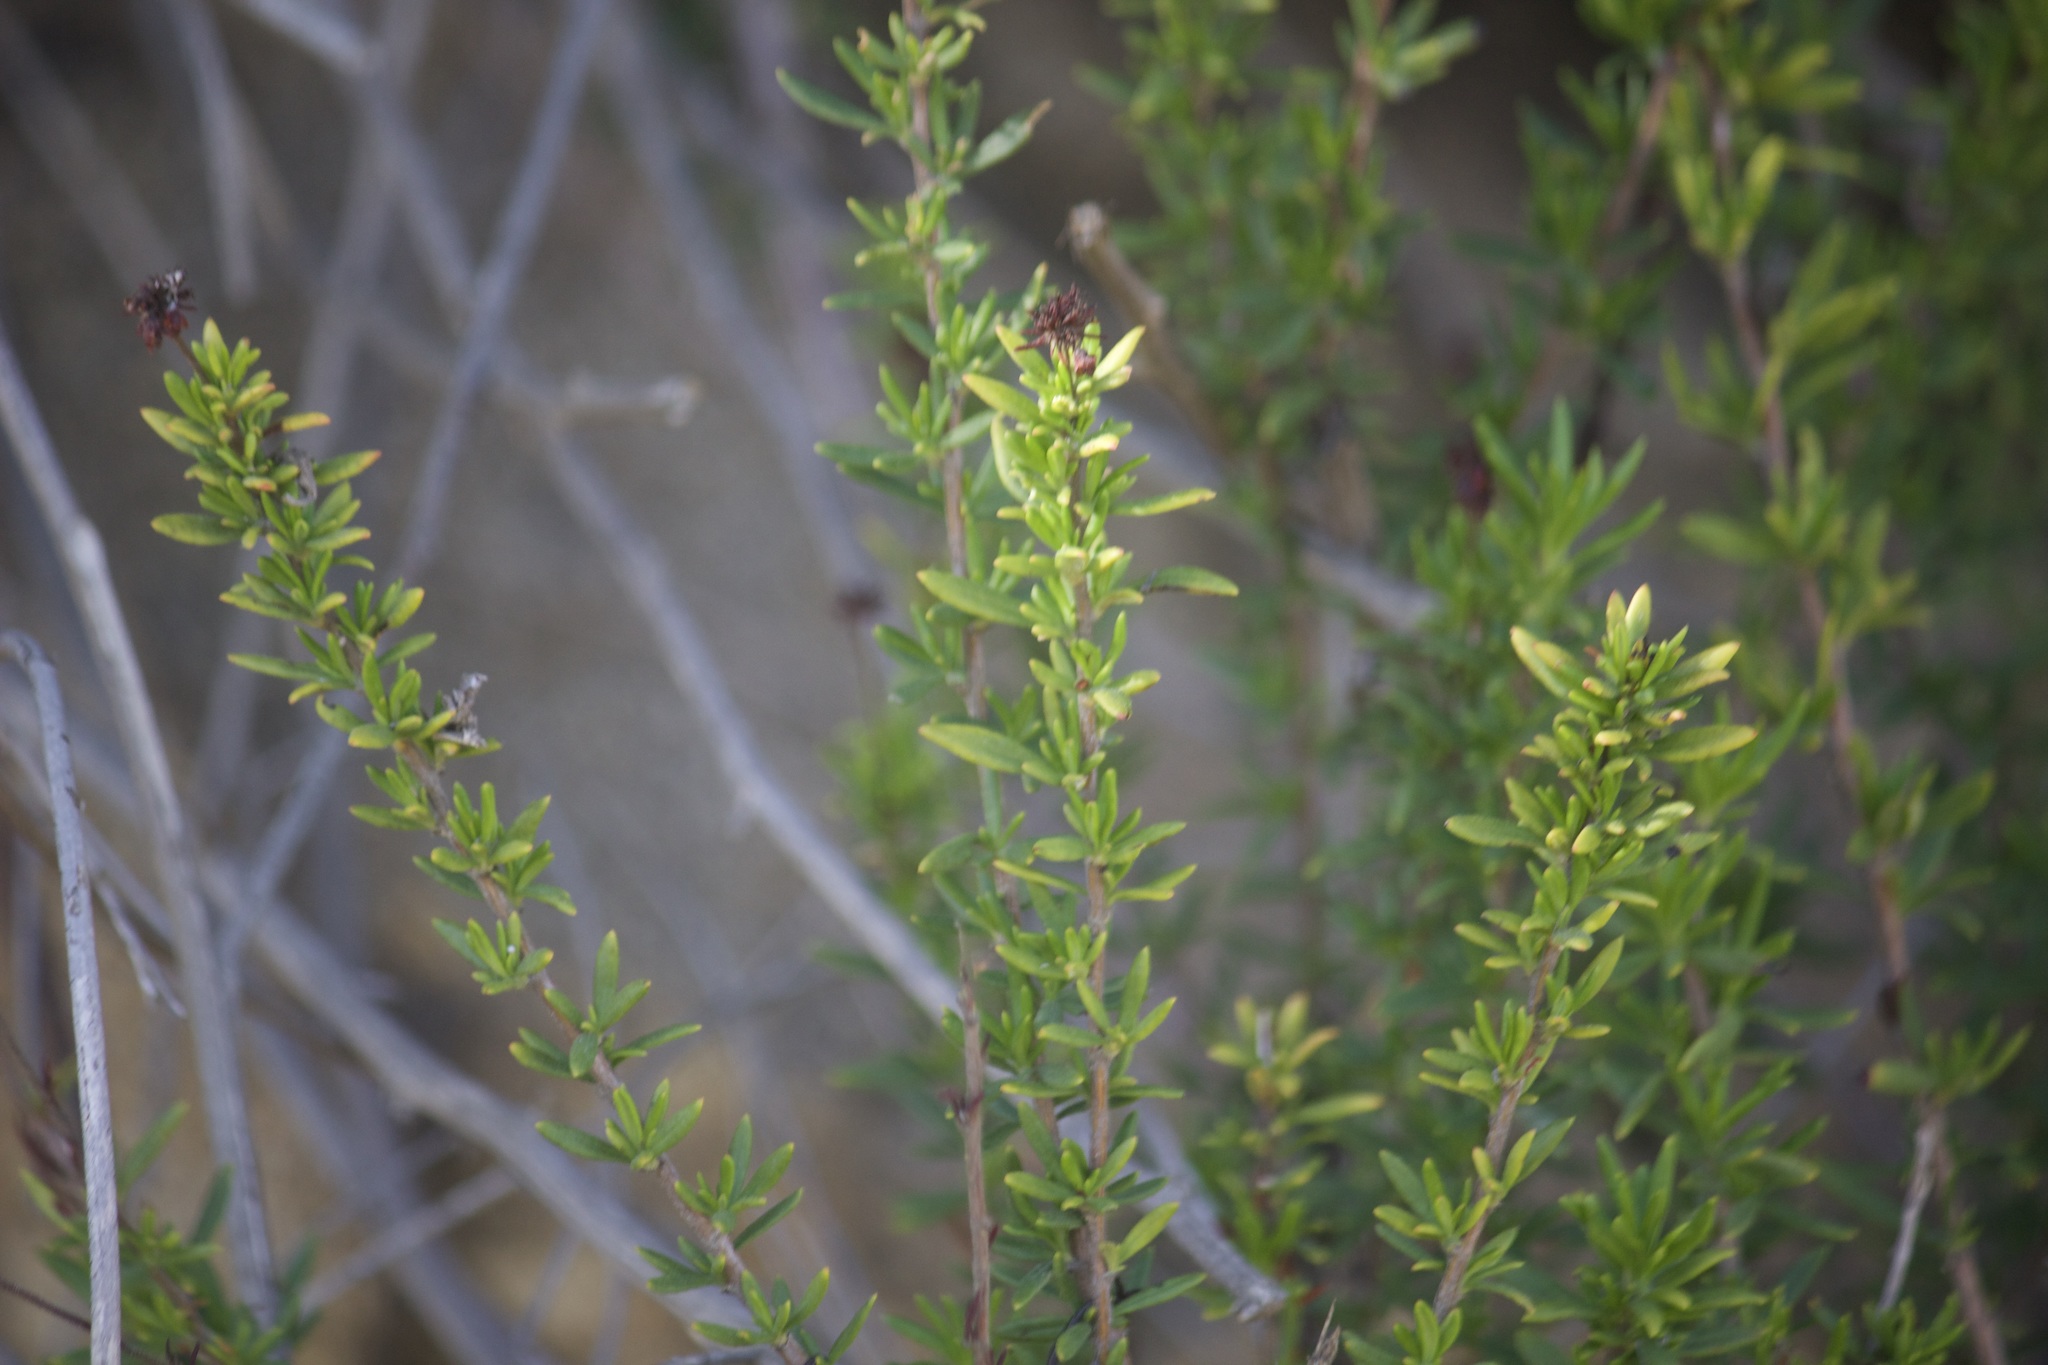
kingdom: Plantae
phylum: Tracheophyta
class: Magnoliopsida
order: Rosales
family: Rosaceae
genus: Adenostoma
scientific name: Adenostoma fasciculatum
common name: Chamise
